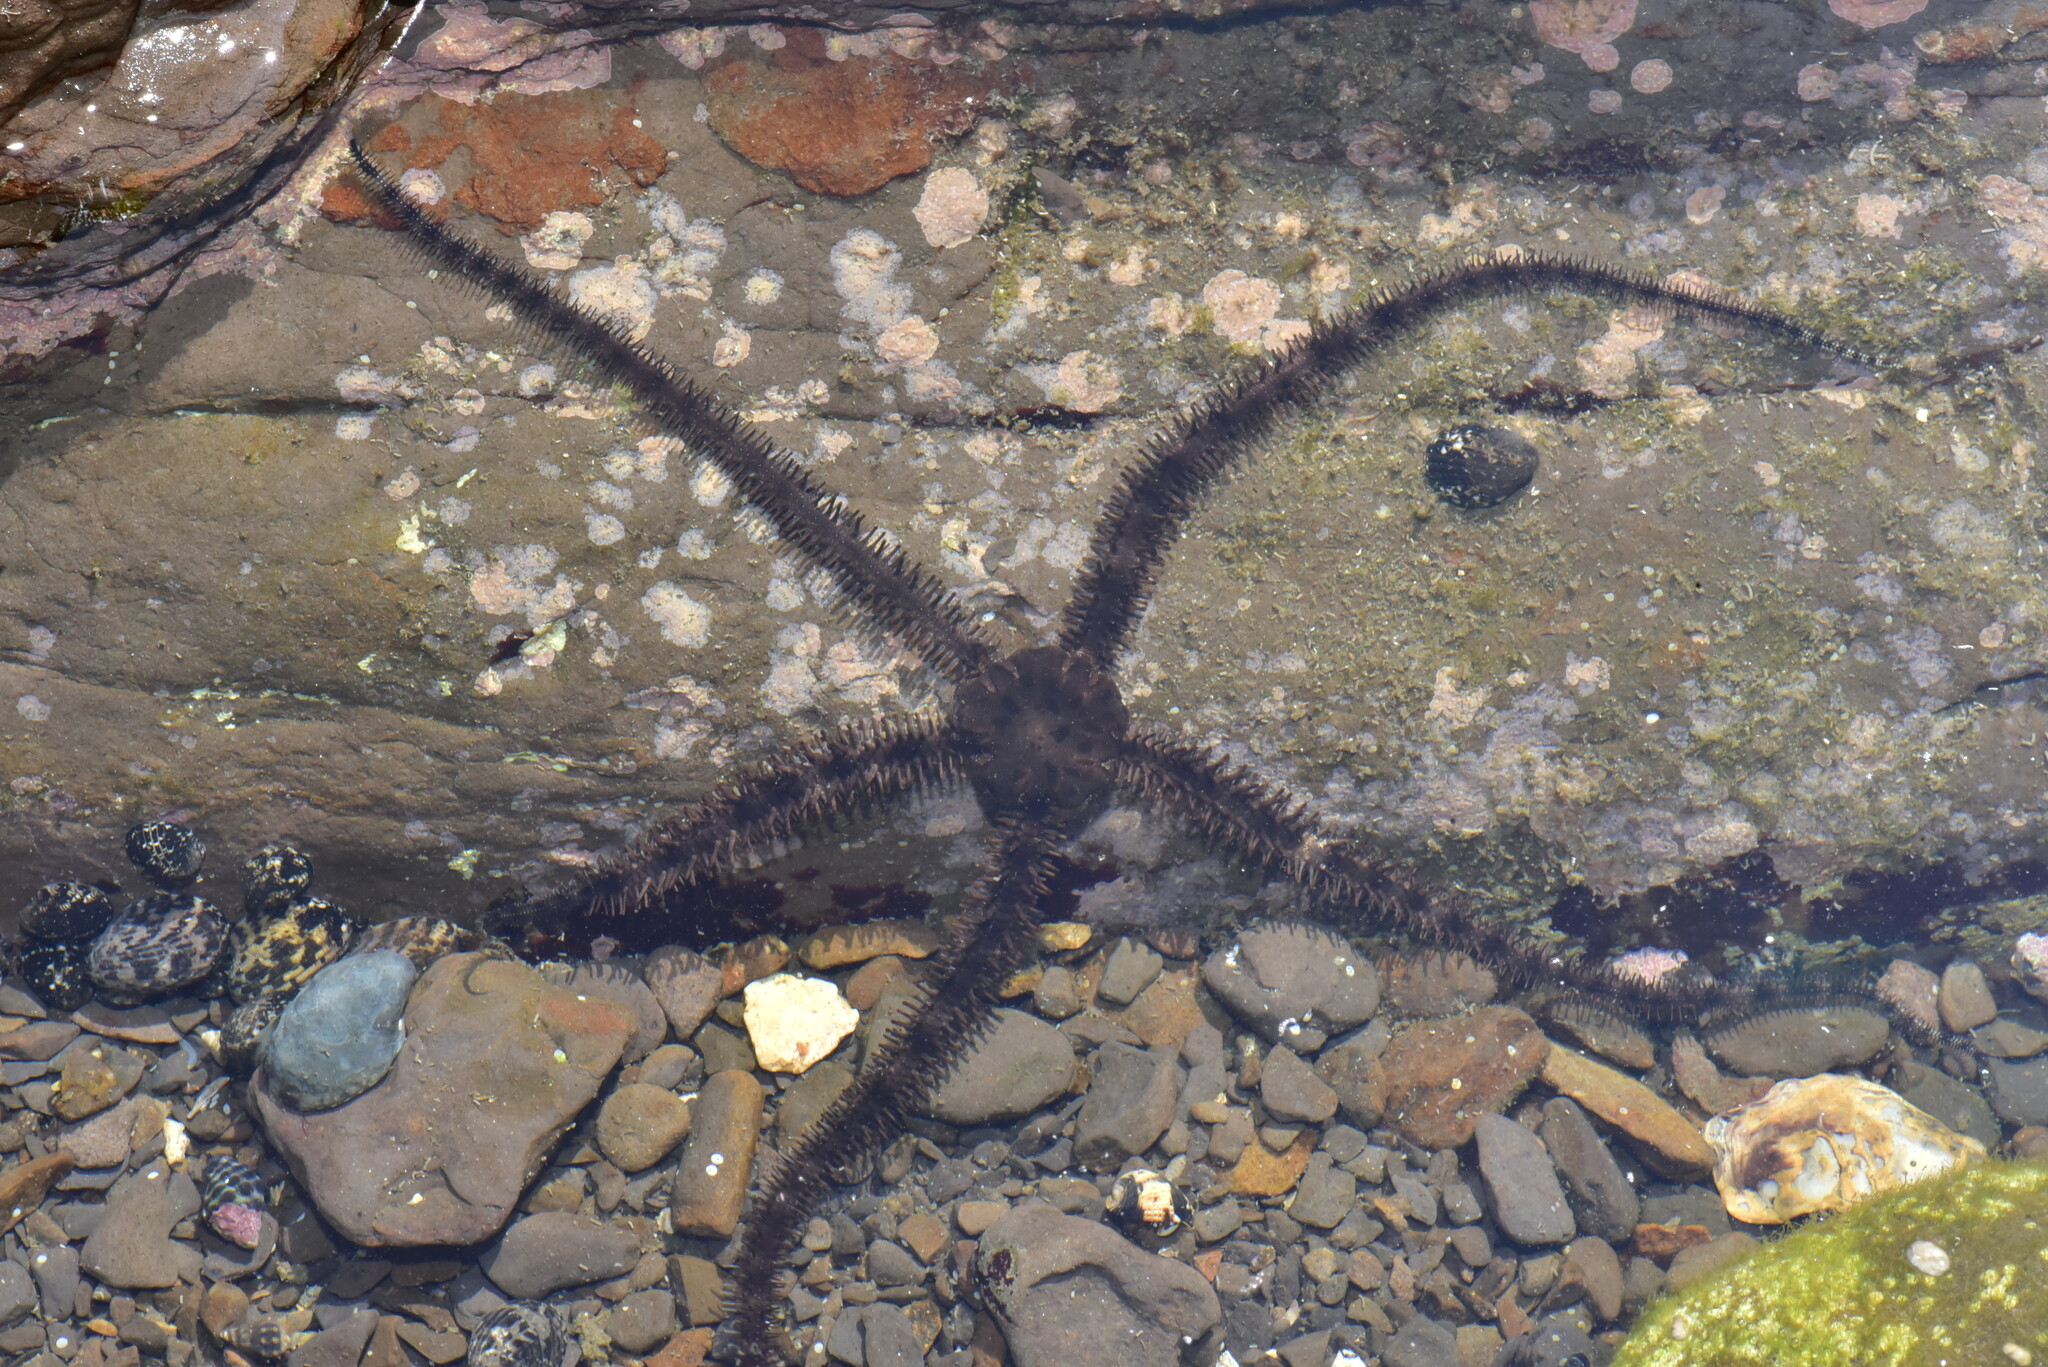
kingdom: Animalia
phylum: Echinodermata
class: Ophiuroidea
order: Ophiacanthida
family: Ophiocomidae
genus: Ophiocoma
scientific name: Ophiocoma scolopendrina
